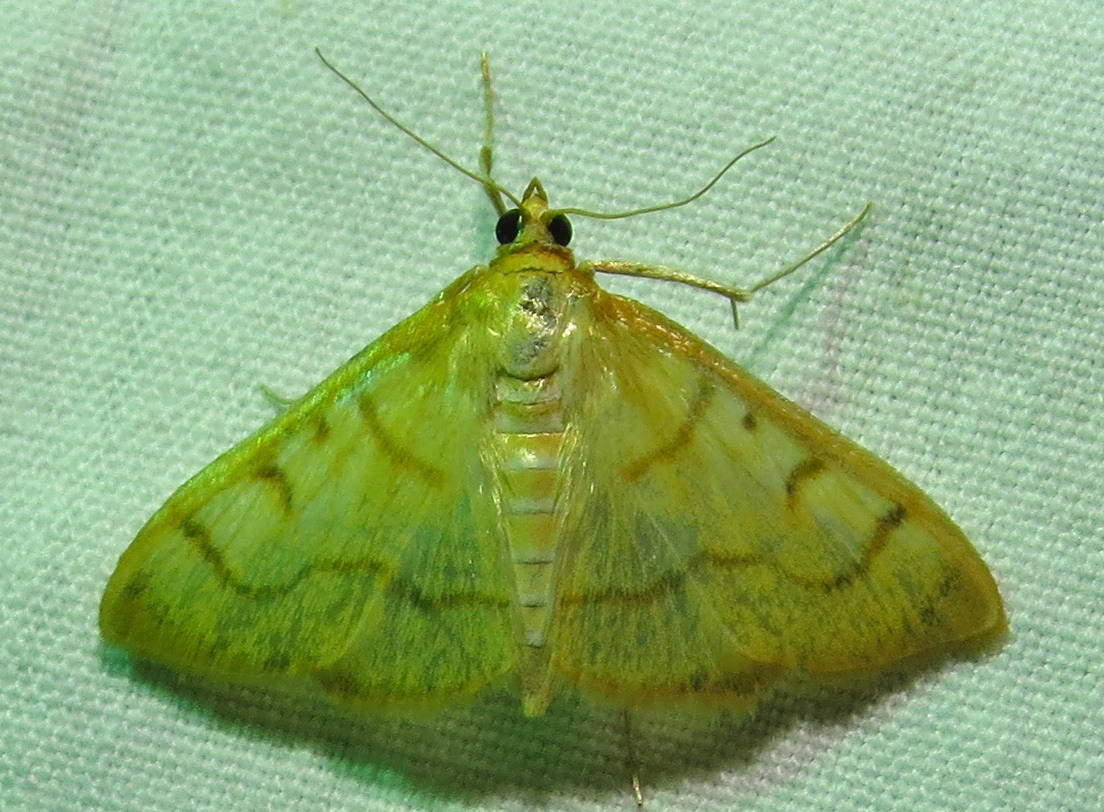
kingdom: Animalia
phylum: Arthropoda
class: Insecta
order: Lepidoptera
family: Crambidae
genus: Neohelvibotys
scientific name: Neohelvibotys neohelvialis
